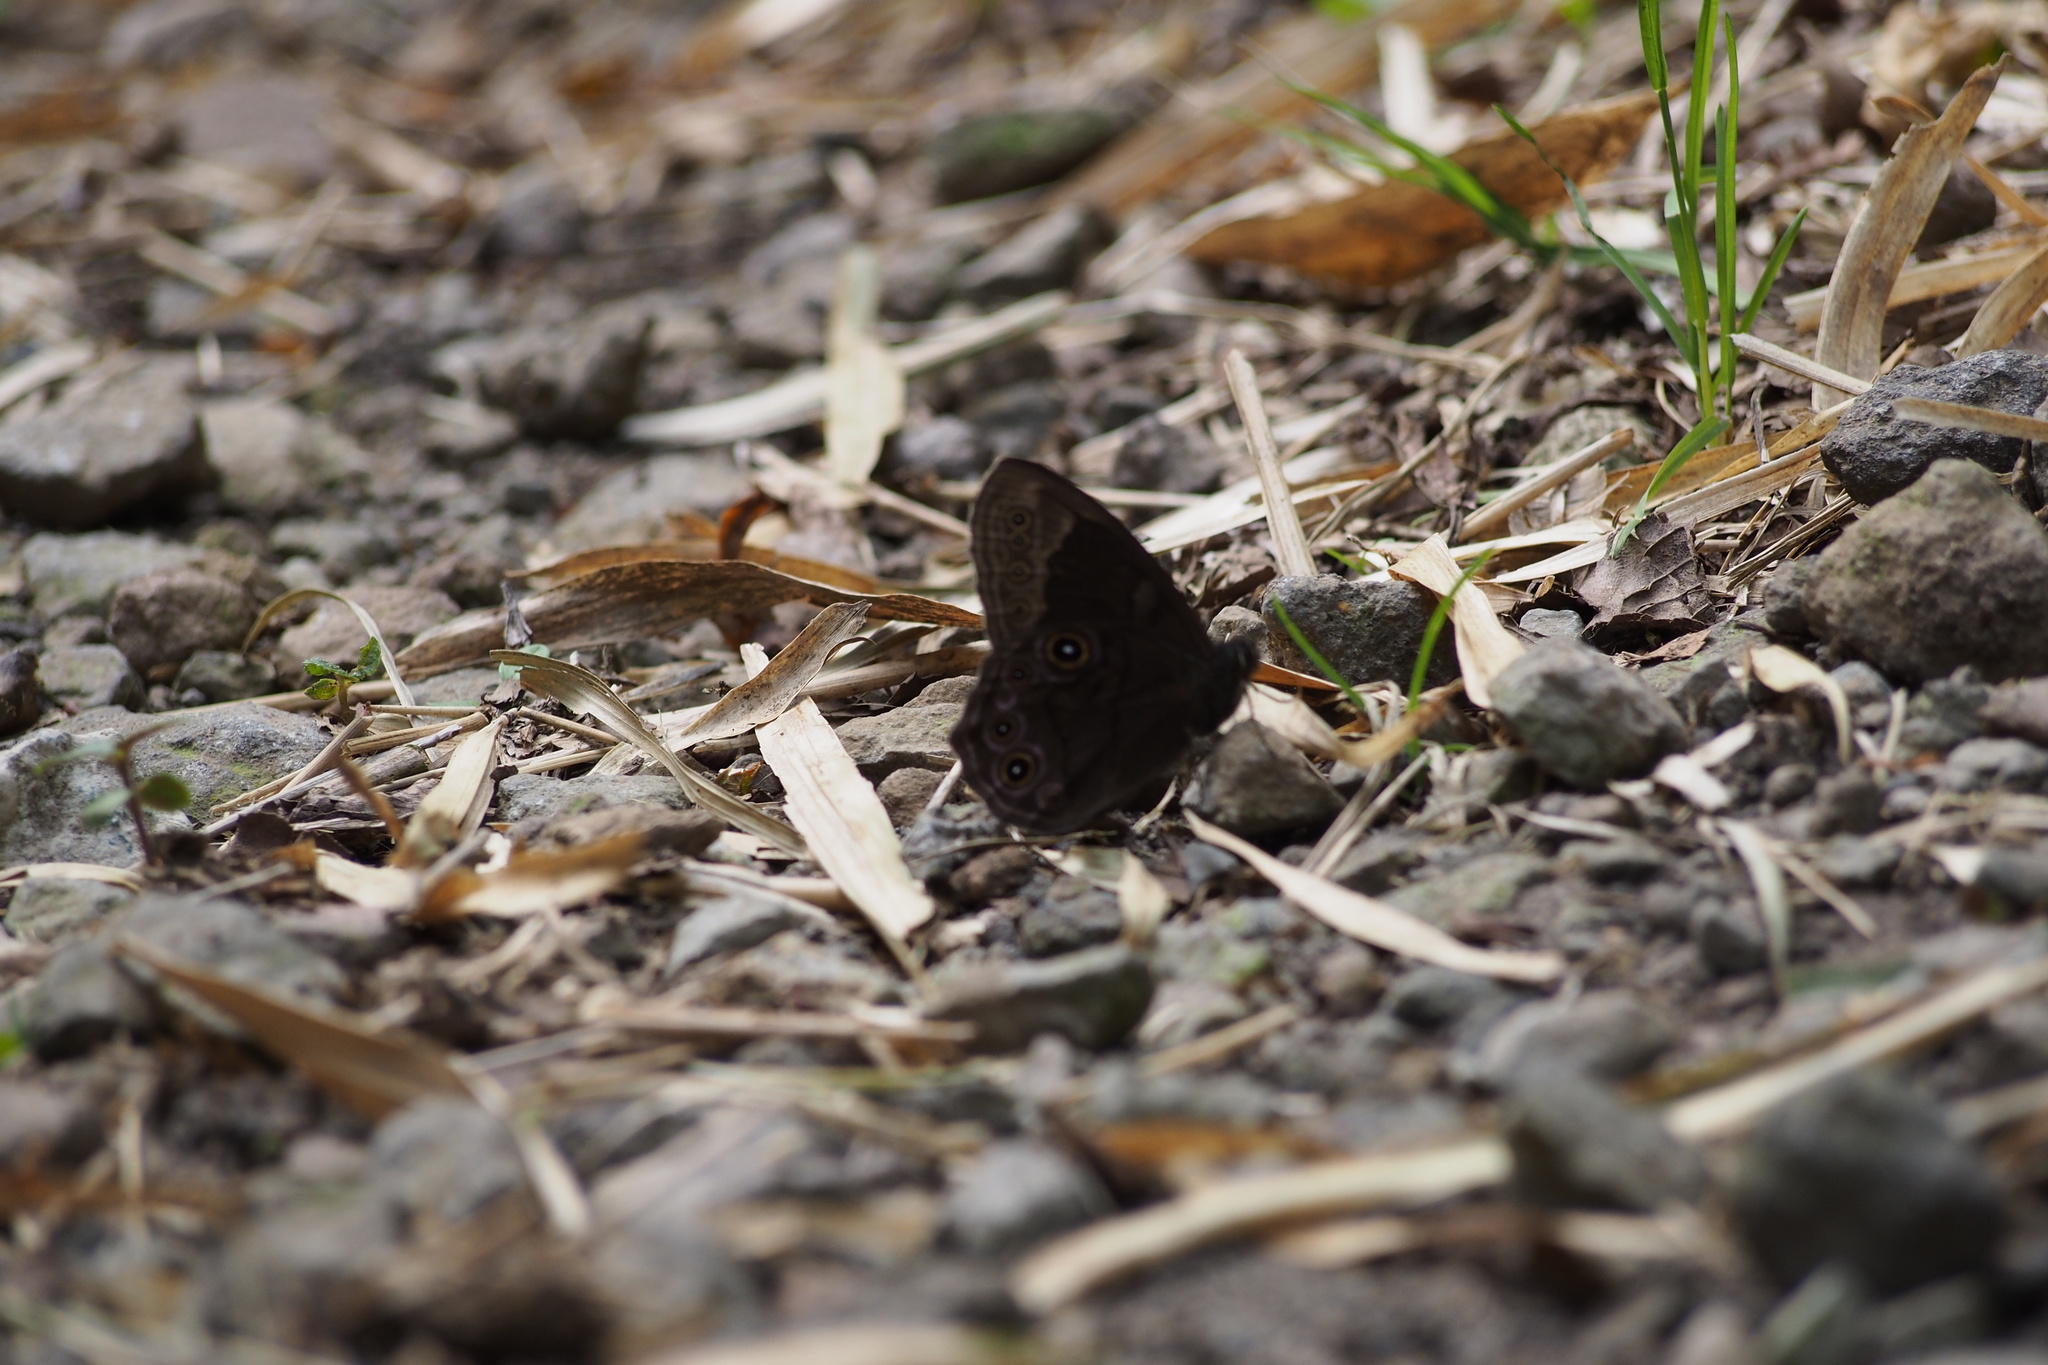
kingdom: Animalia
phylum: Arthropoda
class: Insecta
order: Lepidoptera
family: Nymphalidae
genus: Lethe
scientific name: Lethe diana
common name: Diana treebrown
